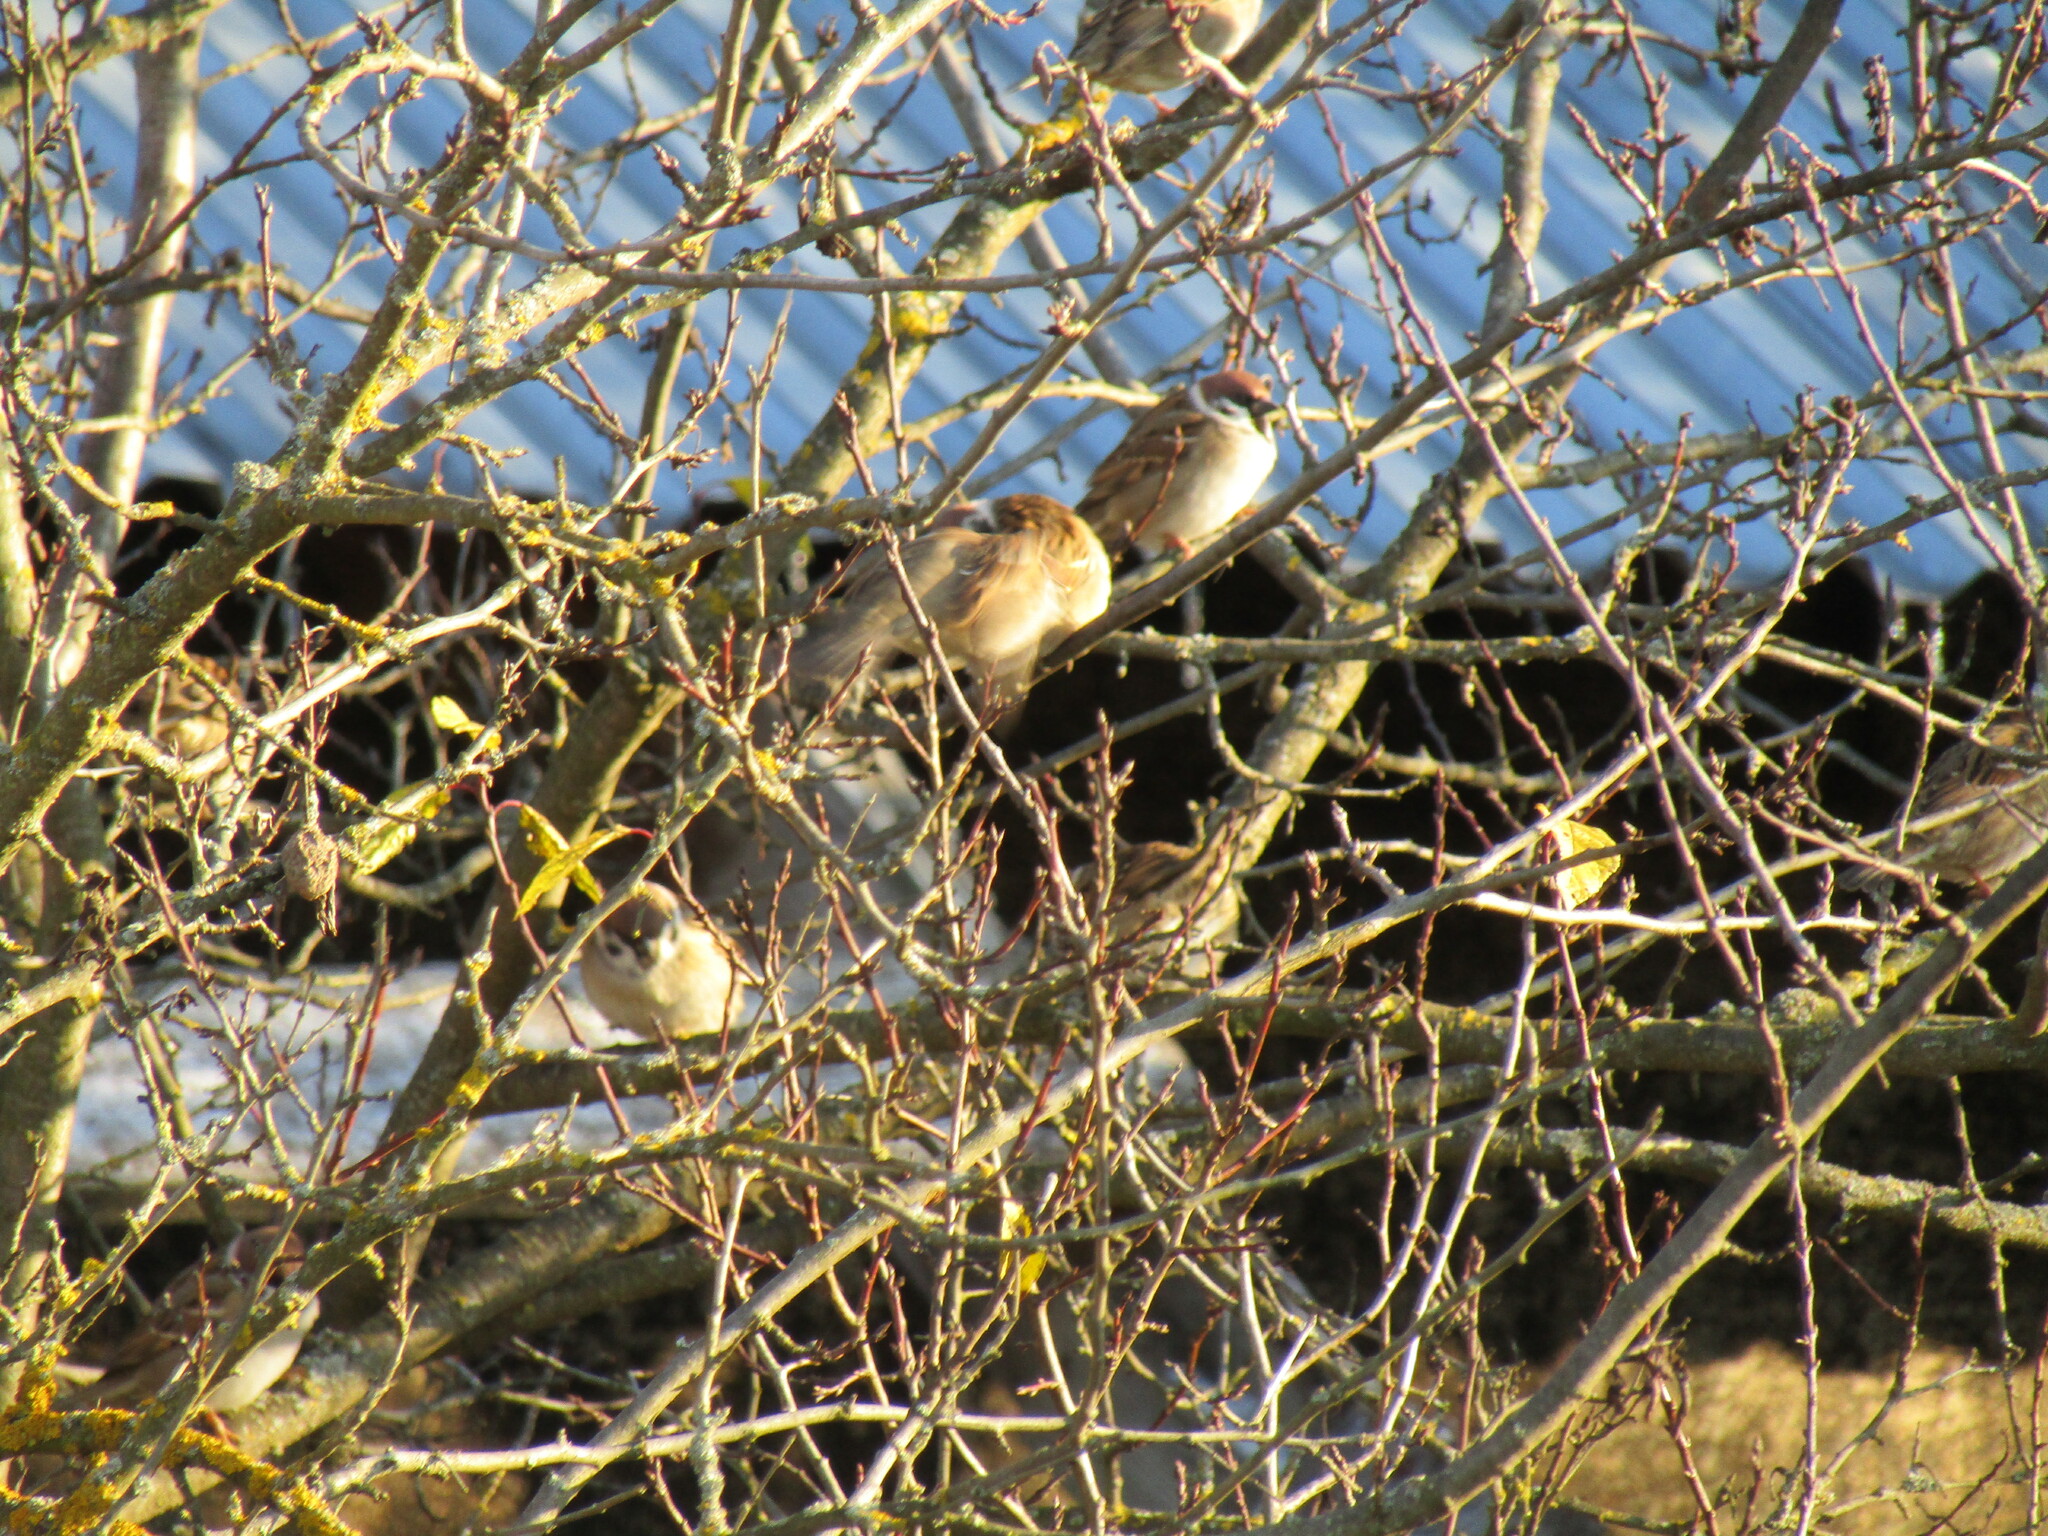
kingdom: Animalia
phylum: Chordata
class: Aves
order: Passeriformes
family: Passeridae
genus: Passer
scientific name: Passer montanus
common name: Eurasian tree sparrow
